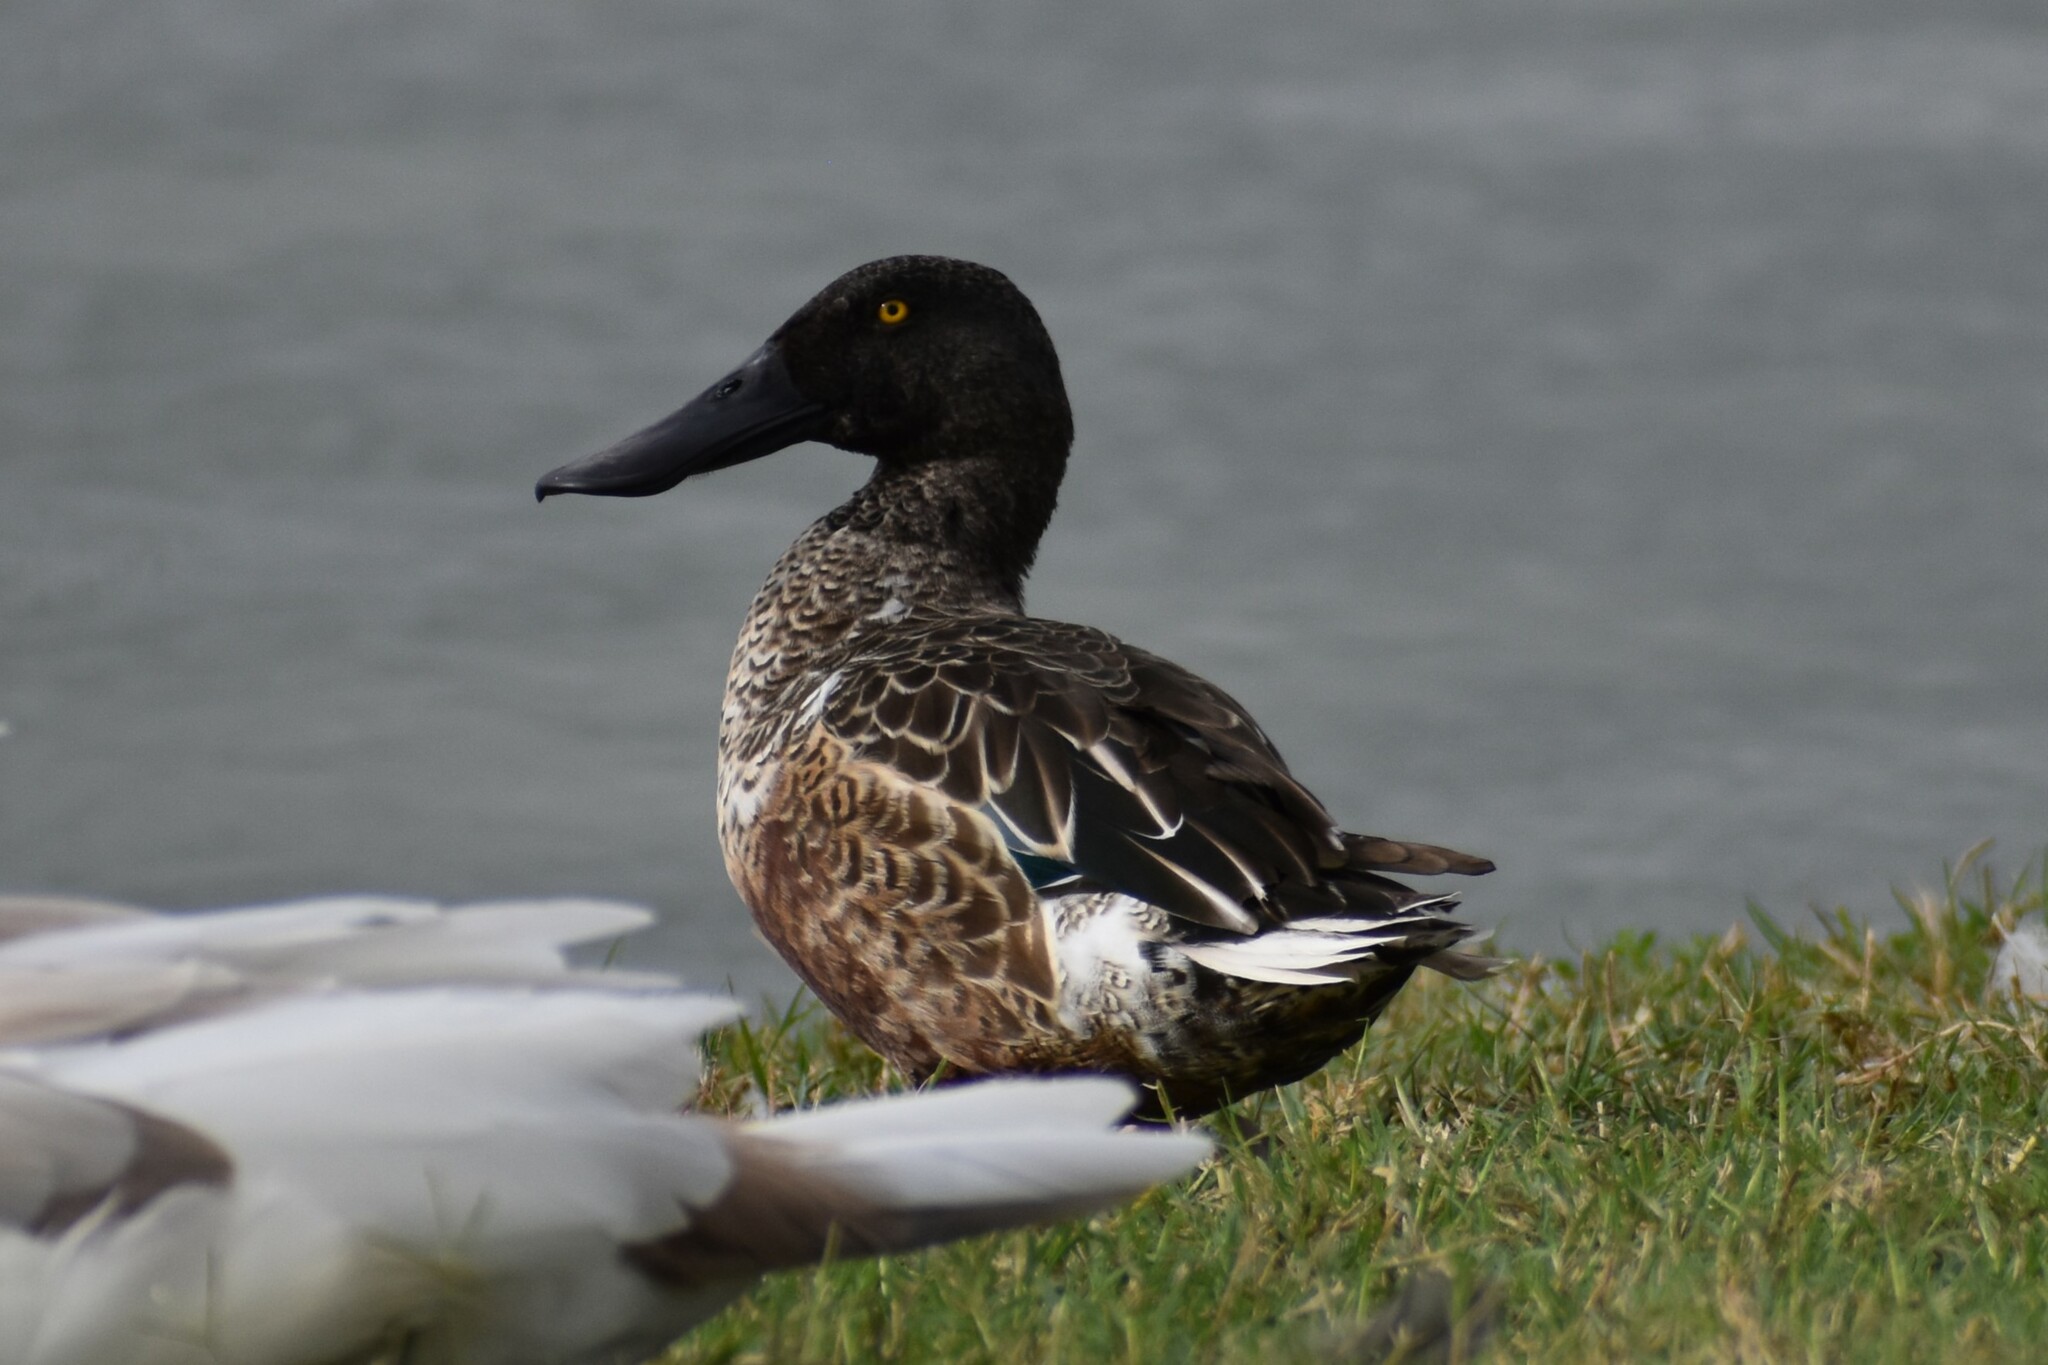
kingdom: Animalia
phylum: Chordata
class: Aves
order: Anseriformes
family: Anatidae
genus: Spatula
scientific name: Spatula clypeata
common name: Northern shoveler
